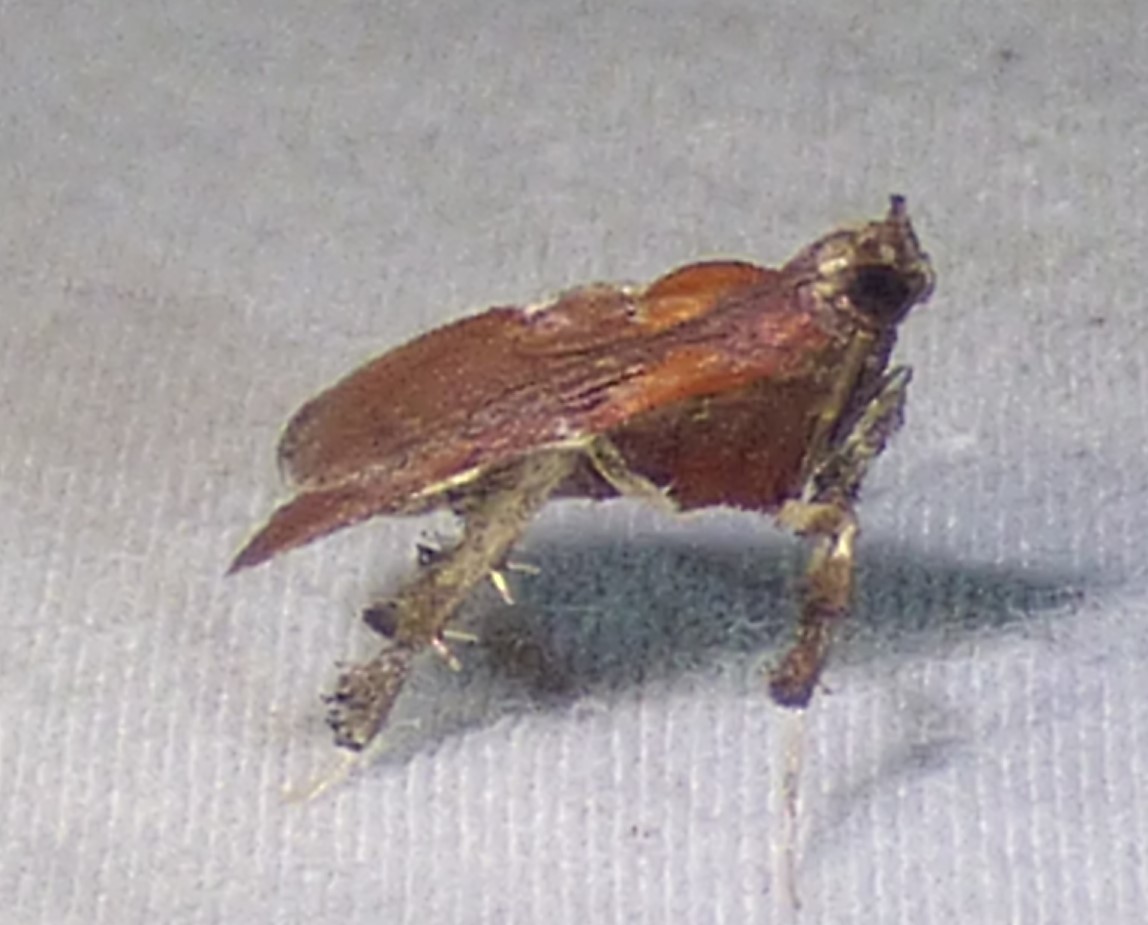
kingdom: Animalia
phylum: Arthropoda
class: Insecta
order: Lepidoptera
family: Pyralidae
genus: Galasa
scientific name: Galasa nigrinodis
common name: Boxwood leaftier moth
